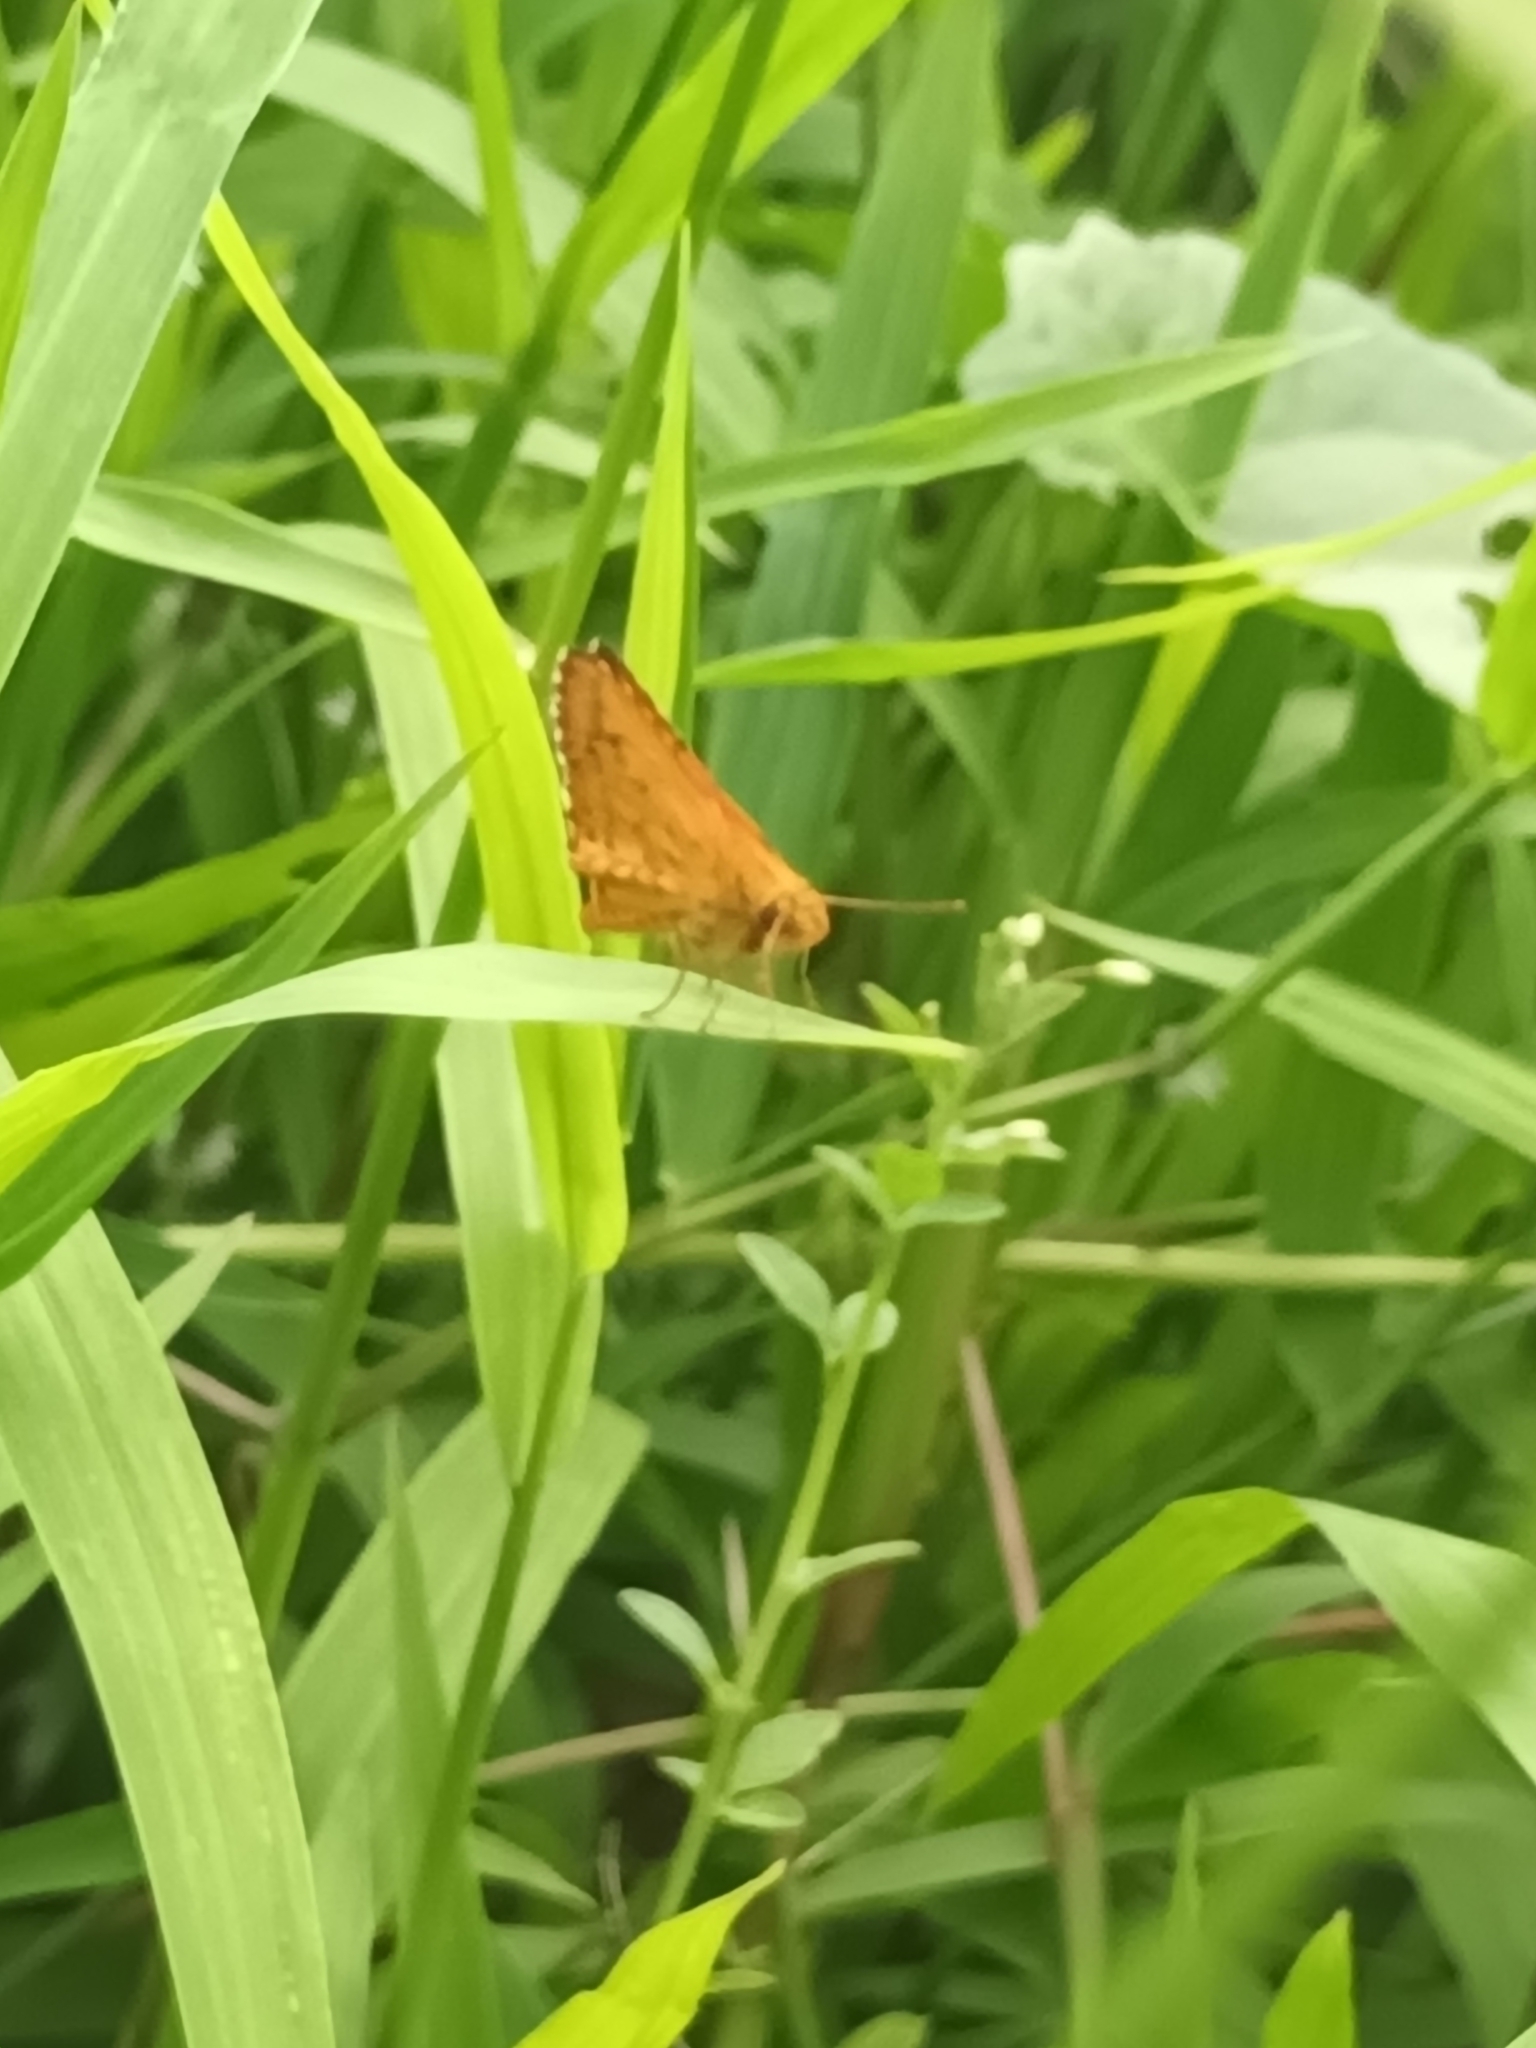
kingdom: Animalia
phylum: Arthropoda
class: Insecta
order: Lepidoptera
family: Hesperiidae
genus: Ampittia
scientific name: Ampittia dioscorides
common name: Common bush hopper
